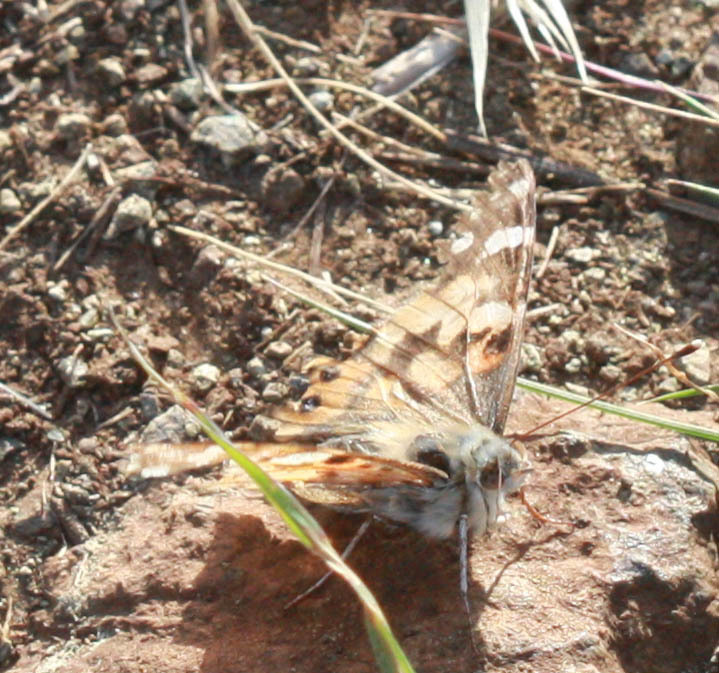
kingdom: Animalia
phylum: Arthropoda
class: Insecta
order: Lepidoptera
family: Nymphalidae
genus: Vanessa
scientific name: Vanessa cardui
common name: Painted lady
